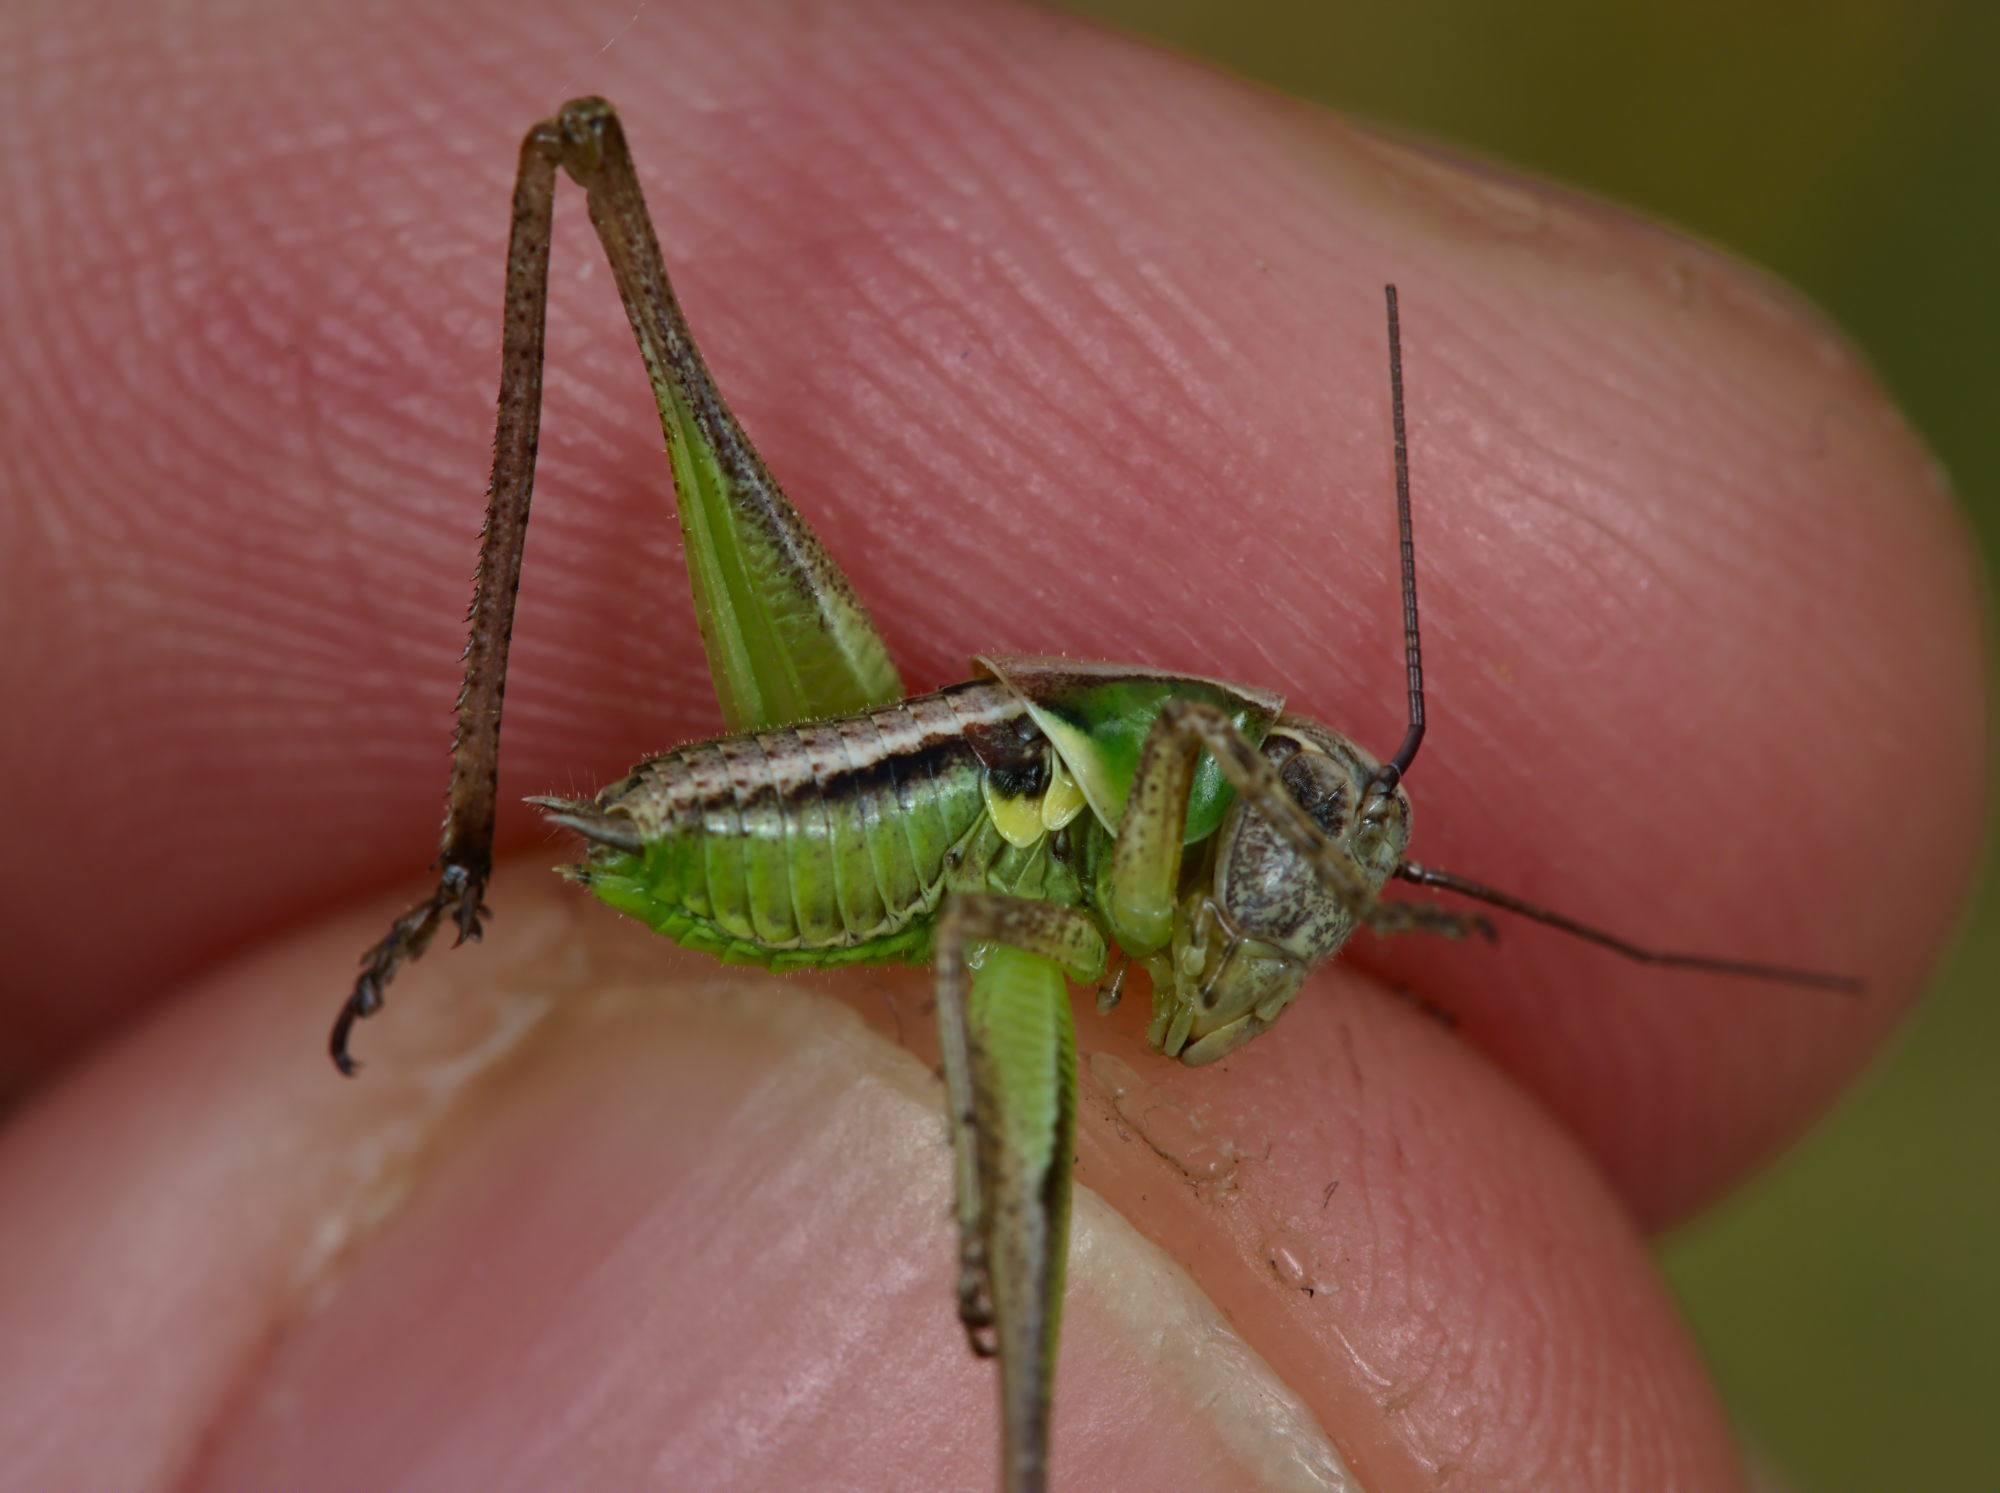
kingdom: Animalia
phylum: Arthropoda
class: Insecta
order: Orthoptera
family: Tettigoniidae
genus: Platycleis
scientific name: Platycleis albopunctata
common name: Grey bush-cricket
